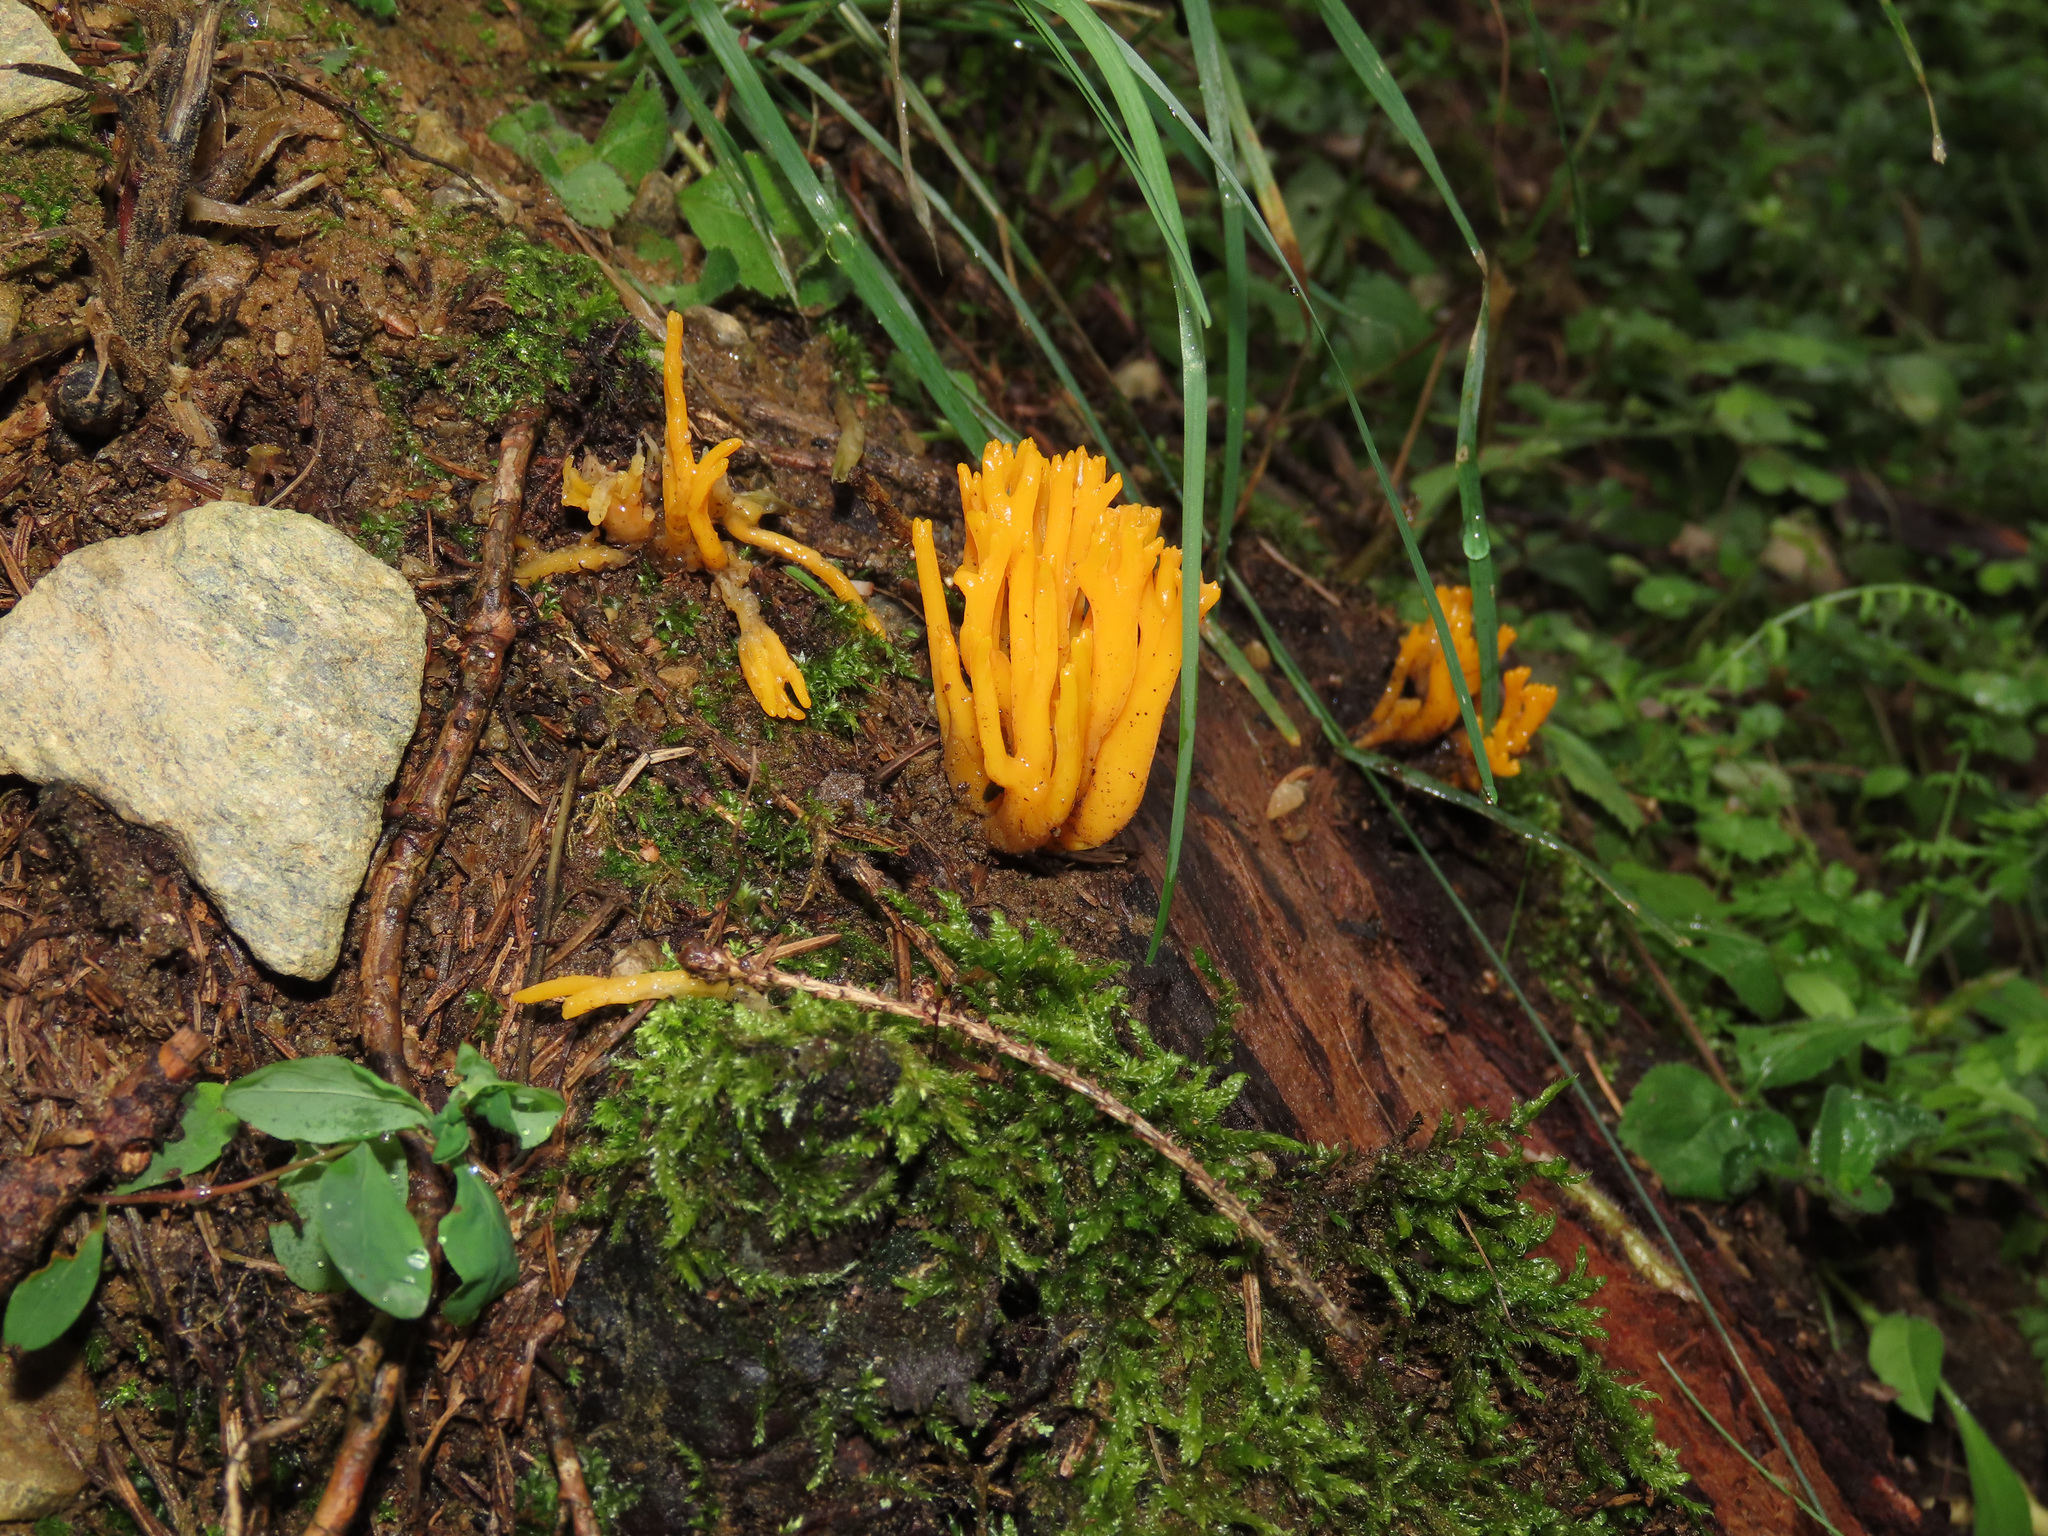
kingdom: Fungi
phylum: Basidiomycota
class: Dacrymycetes
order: Dacrymycetales
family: Dacrymycetaceae
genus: Calocera
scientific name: Calocera viscosa
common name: Yellow stagshorn
